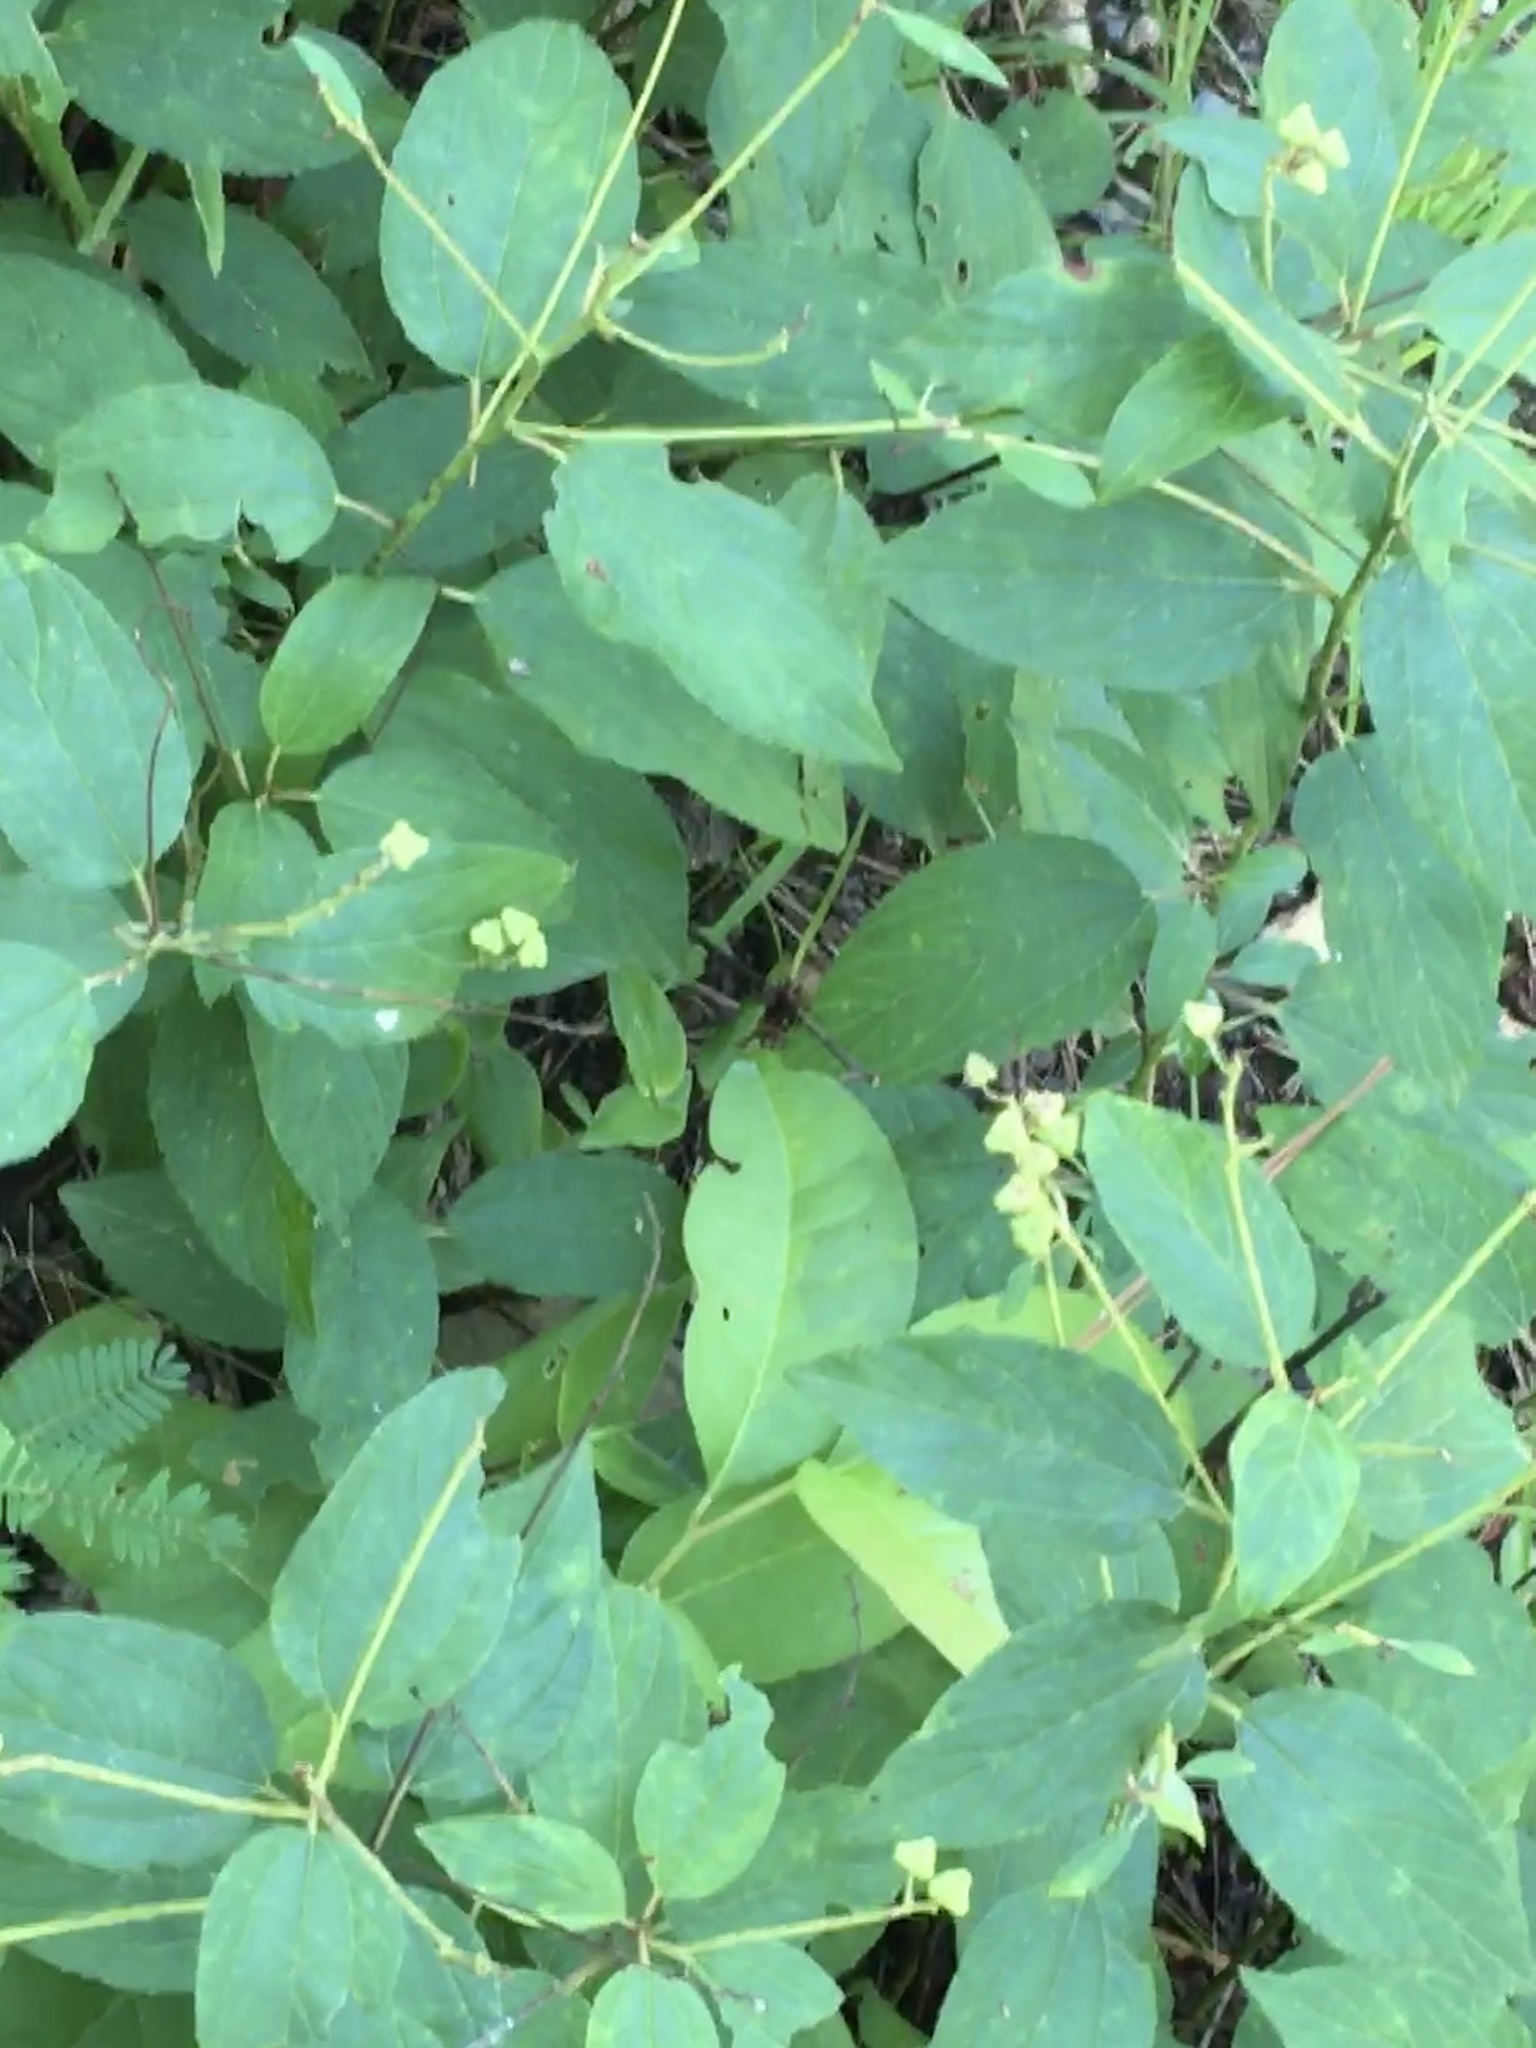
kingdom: Plantae
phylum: Tracheophyta
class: Magnoliopsida
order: Rosales
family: Rhamnaceae
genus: Ceanothus
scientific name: Ceanothus americanus
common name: Redroot
